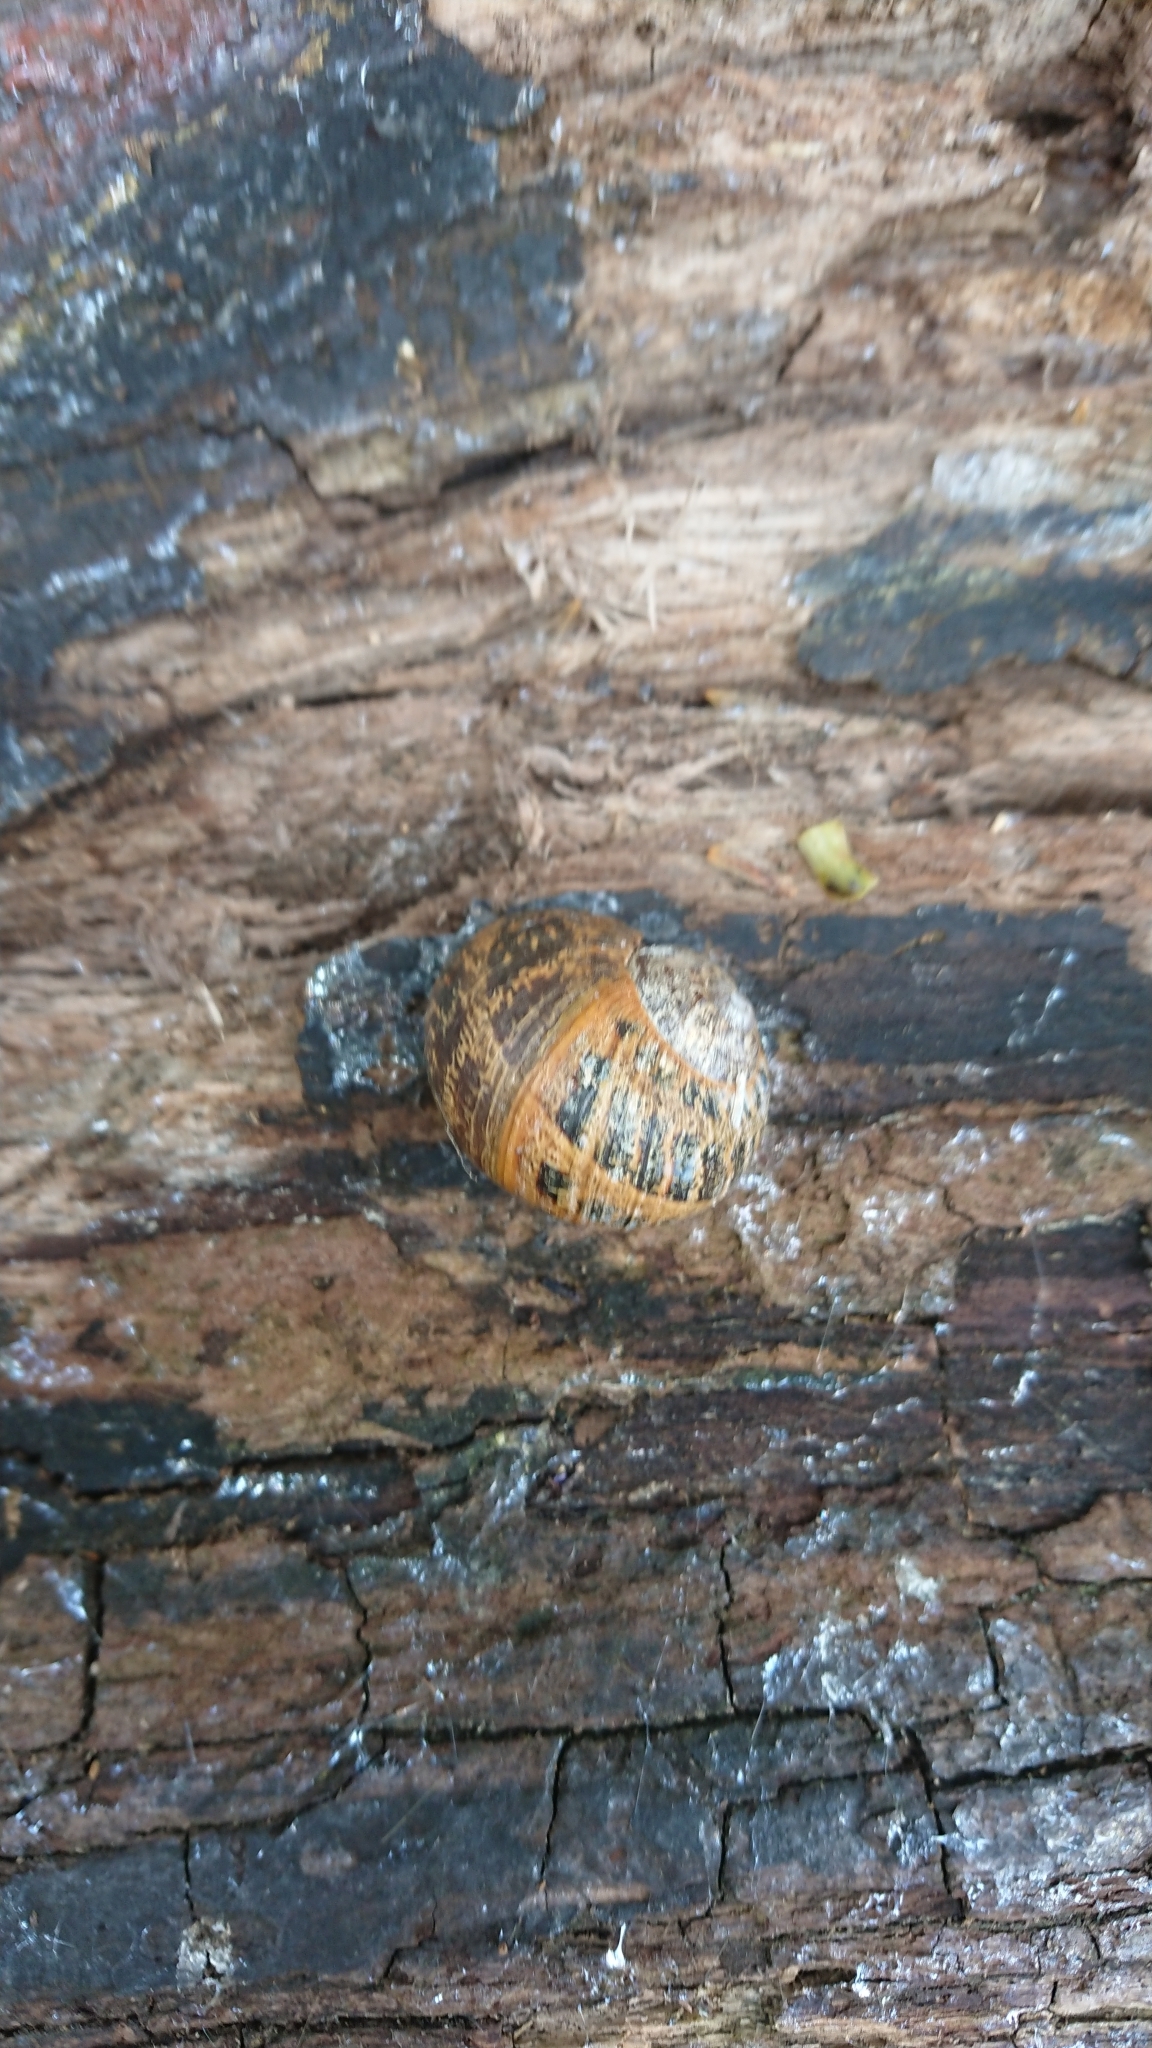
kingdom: Animalia
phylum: Mollusca
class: Gastropoda
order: Stylommatophora
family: Helicidae
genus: Cornu
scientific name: Cornu aspersum
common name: Brown garden snail
